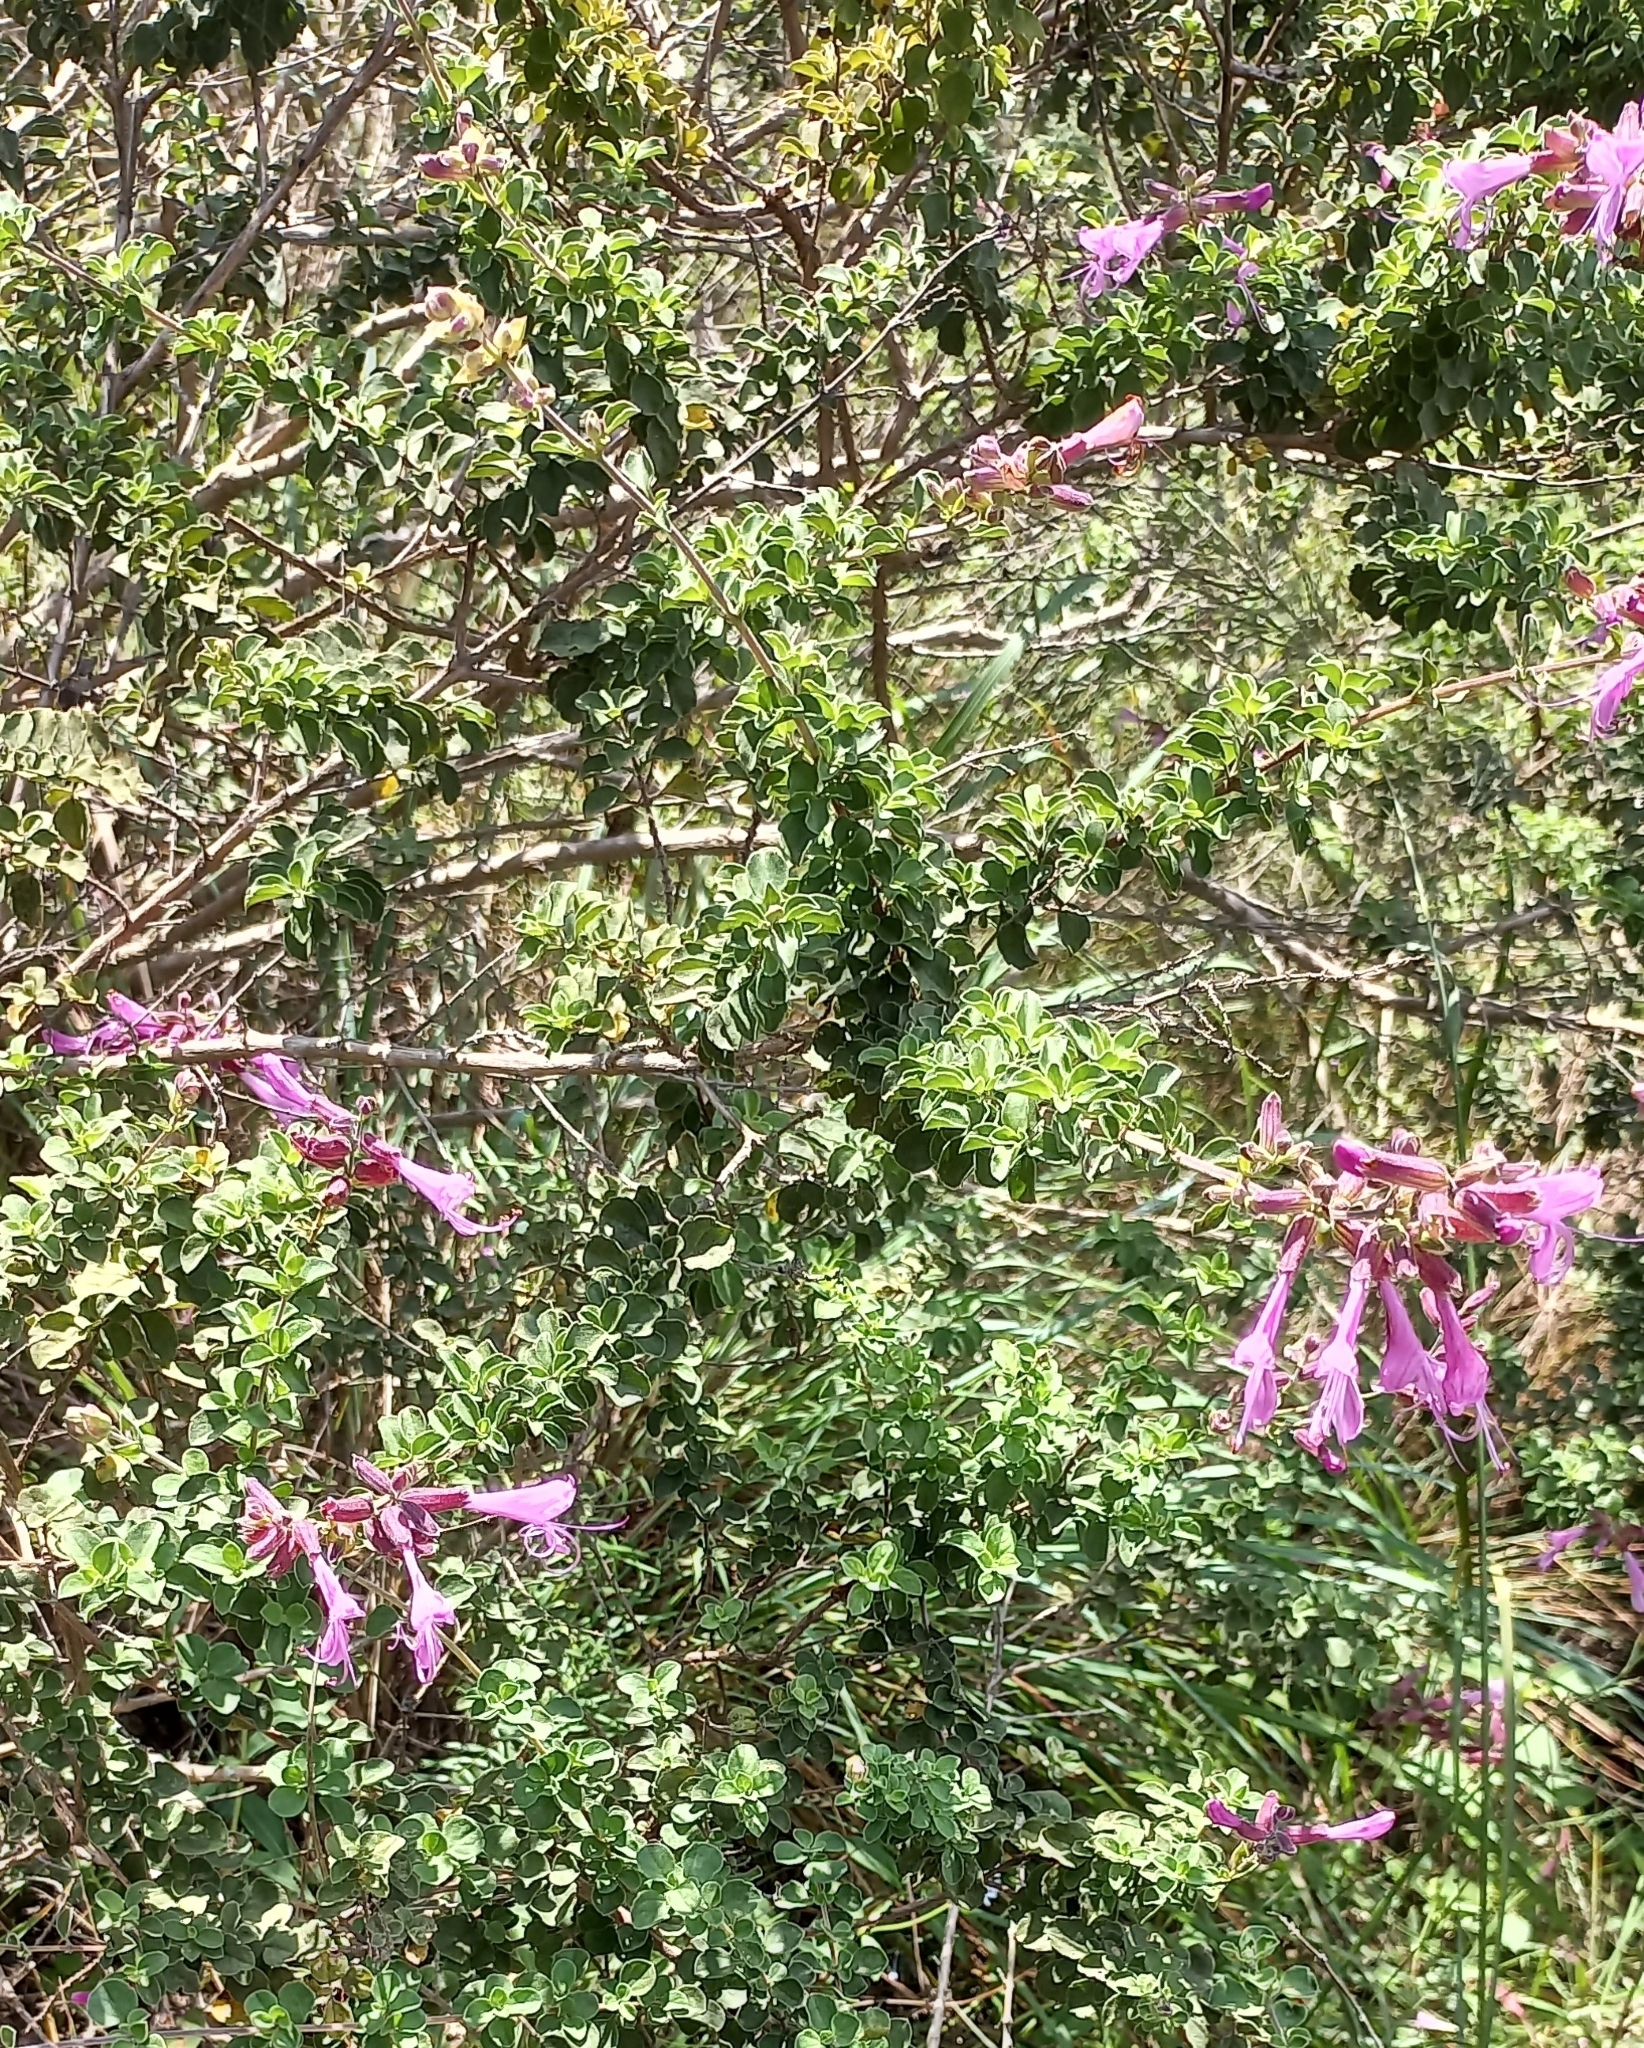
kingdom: Plantae
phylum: Tracheophyta
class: Magnoliopsida
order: Lamiales
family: Lamiaceae
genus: Syncolostemon
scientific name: Syncolostemon rotundifolius
